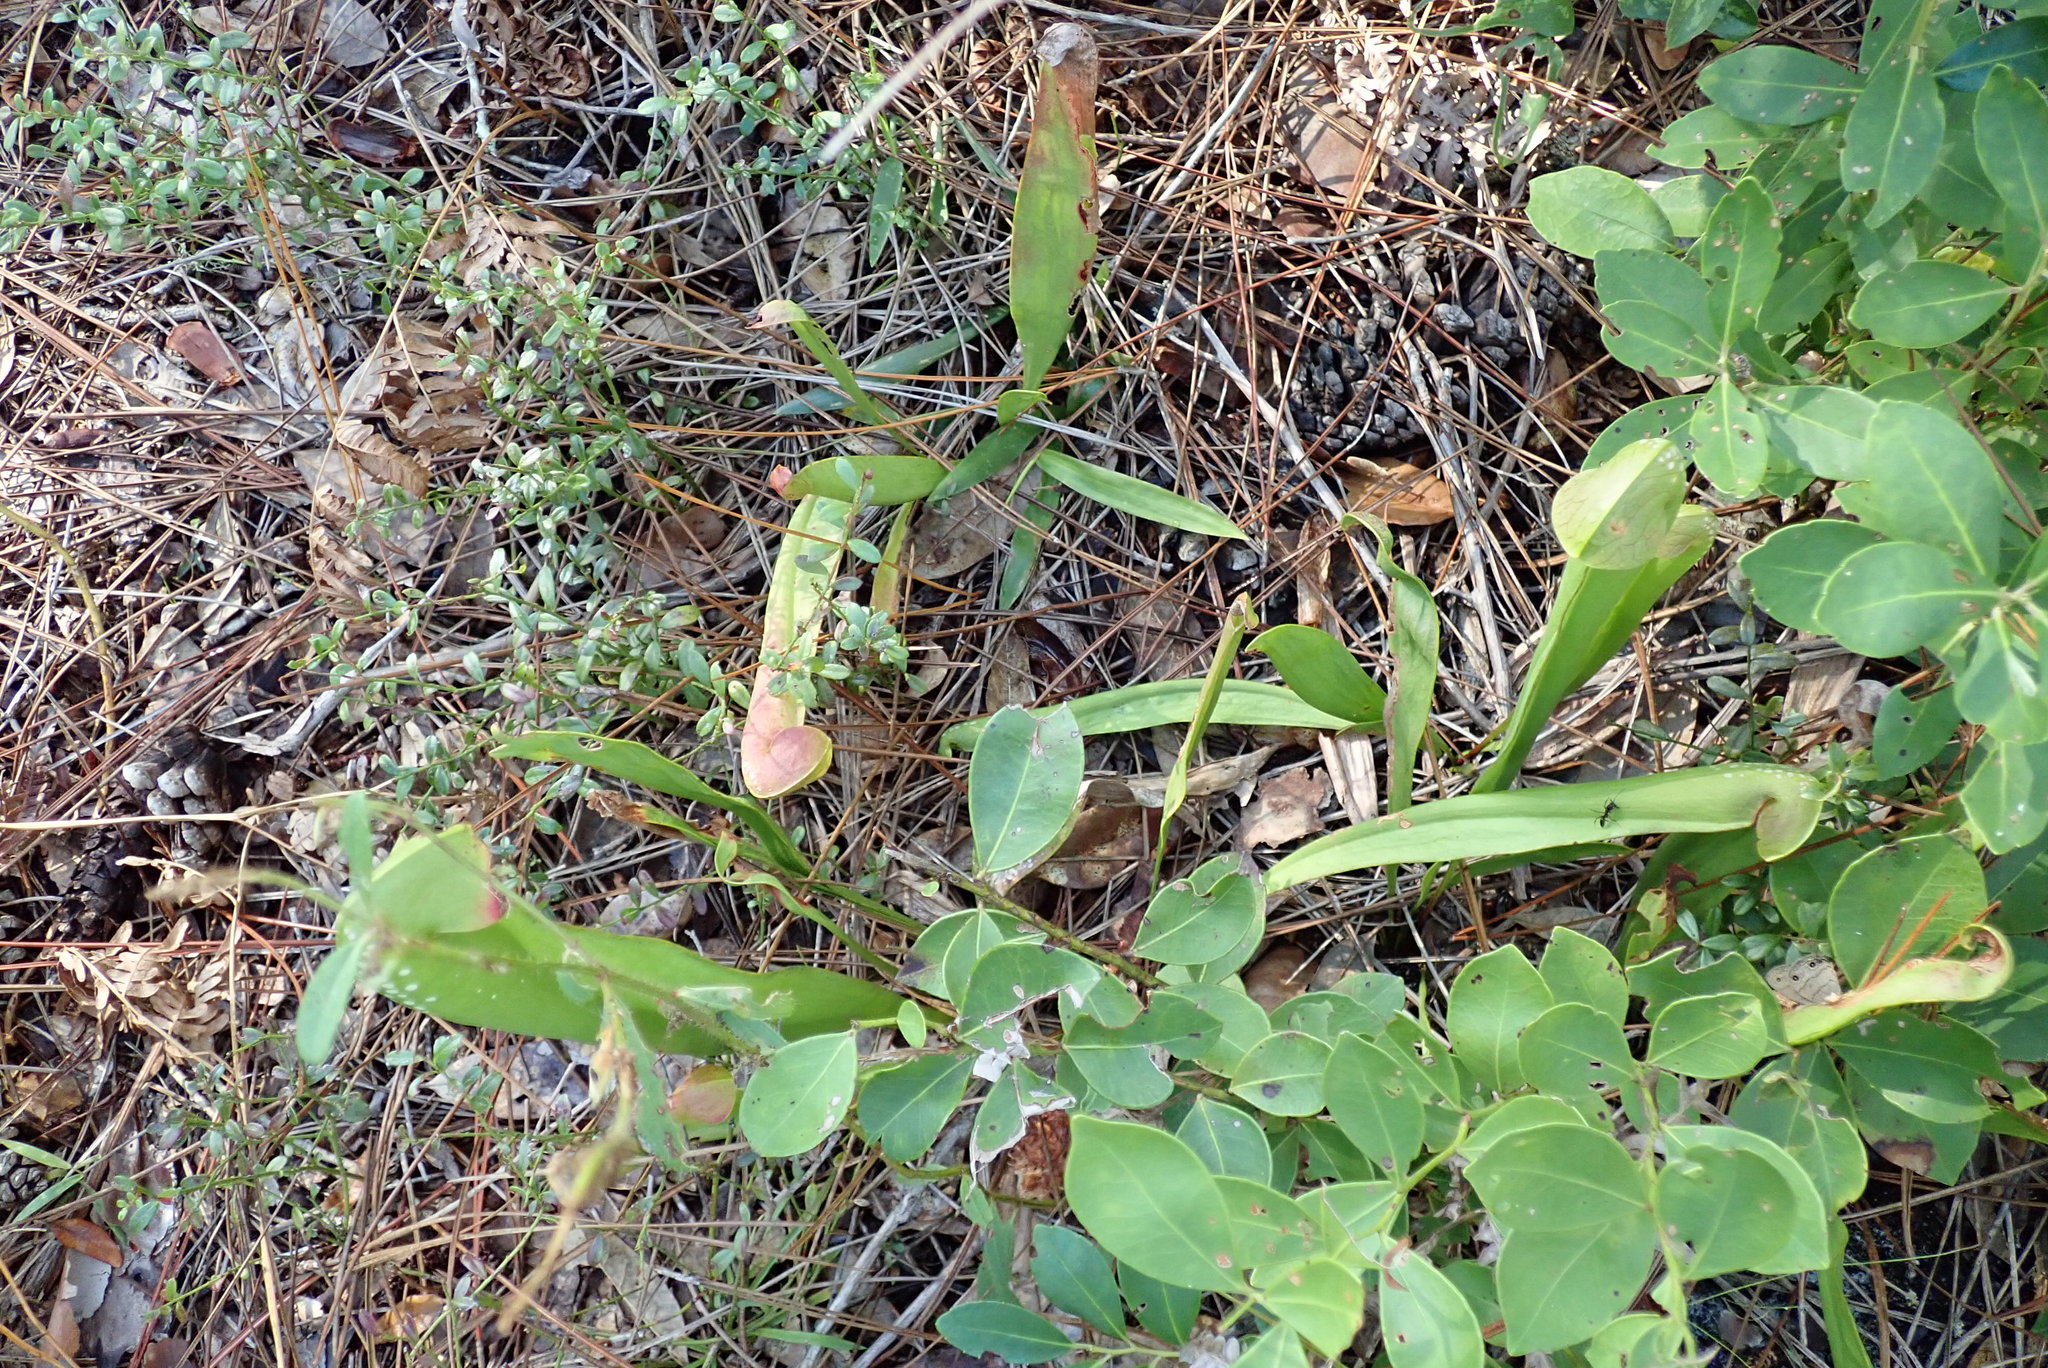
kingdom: Plantae
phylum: Tracheophyta
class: Magnoliopsida
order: Ericales
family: Sarraceniaceae
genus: Sarracenia
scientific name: Sarracenia minor
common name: Rainhat-trumpet
